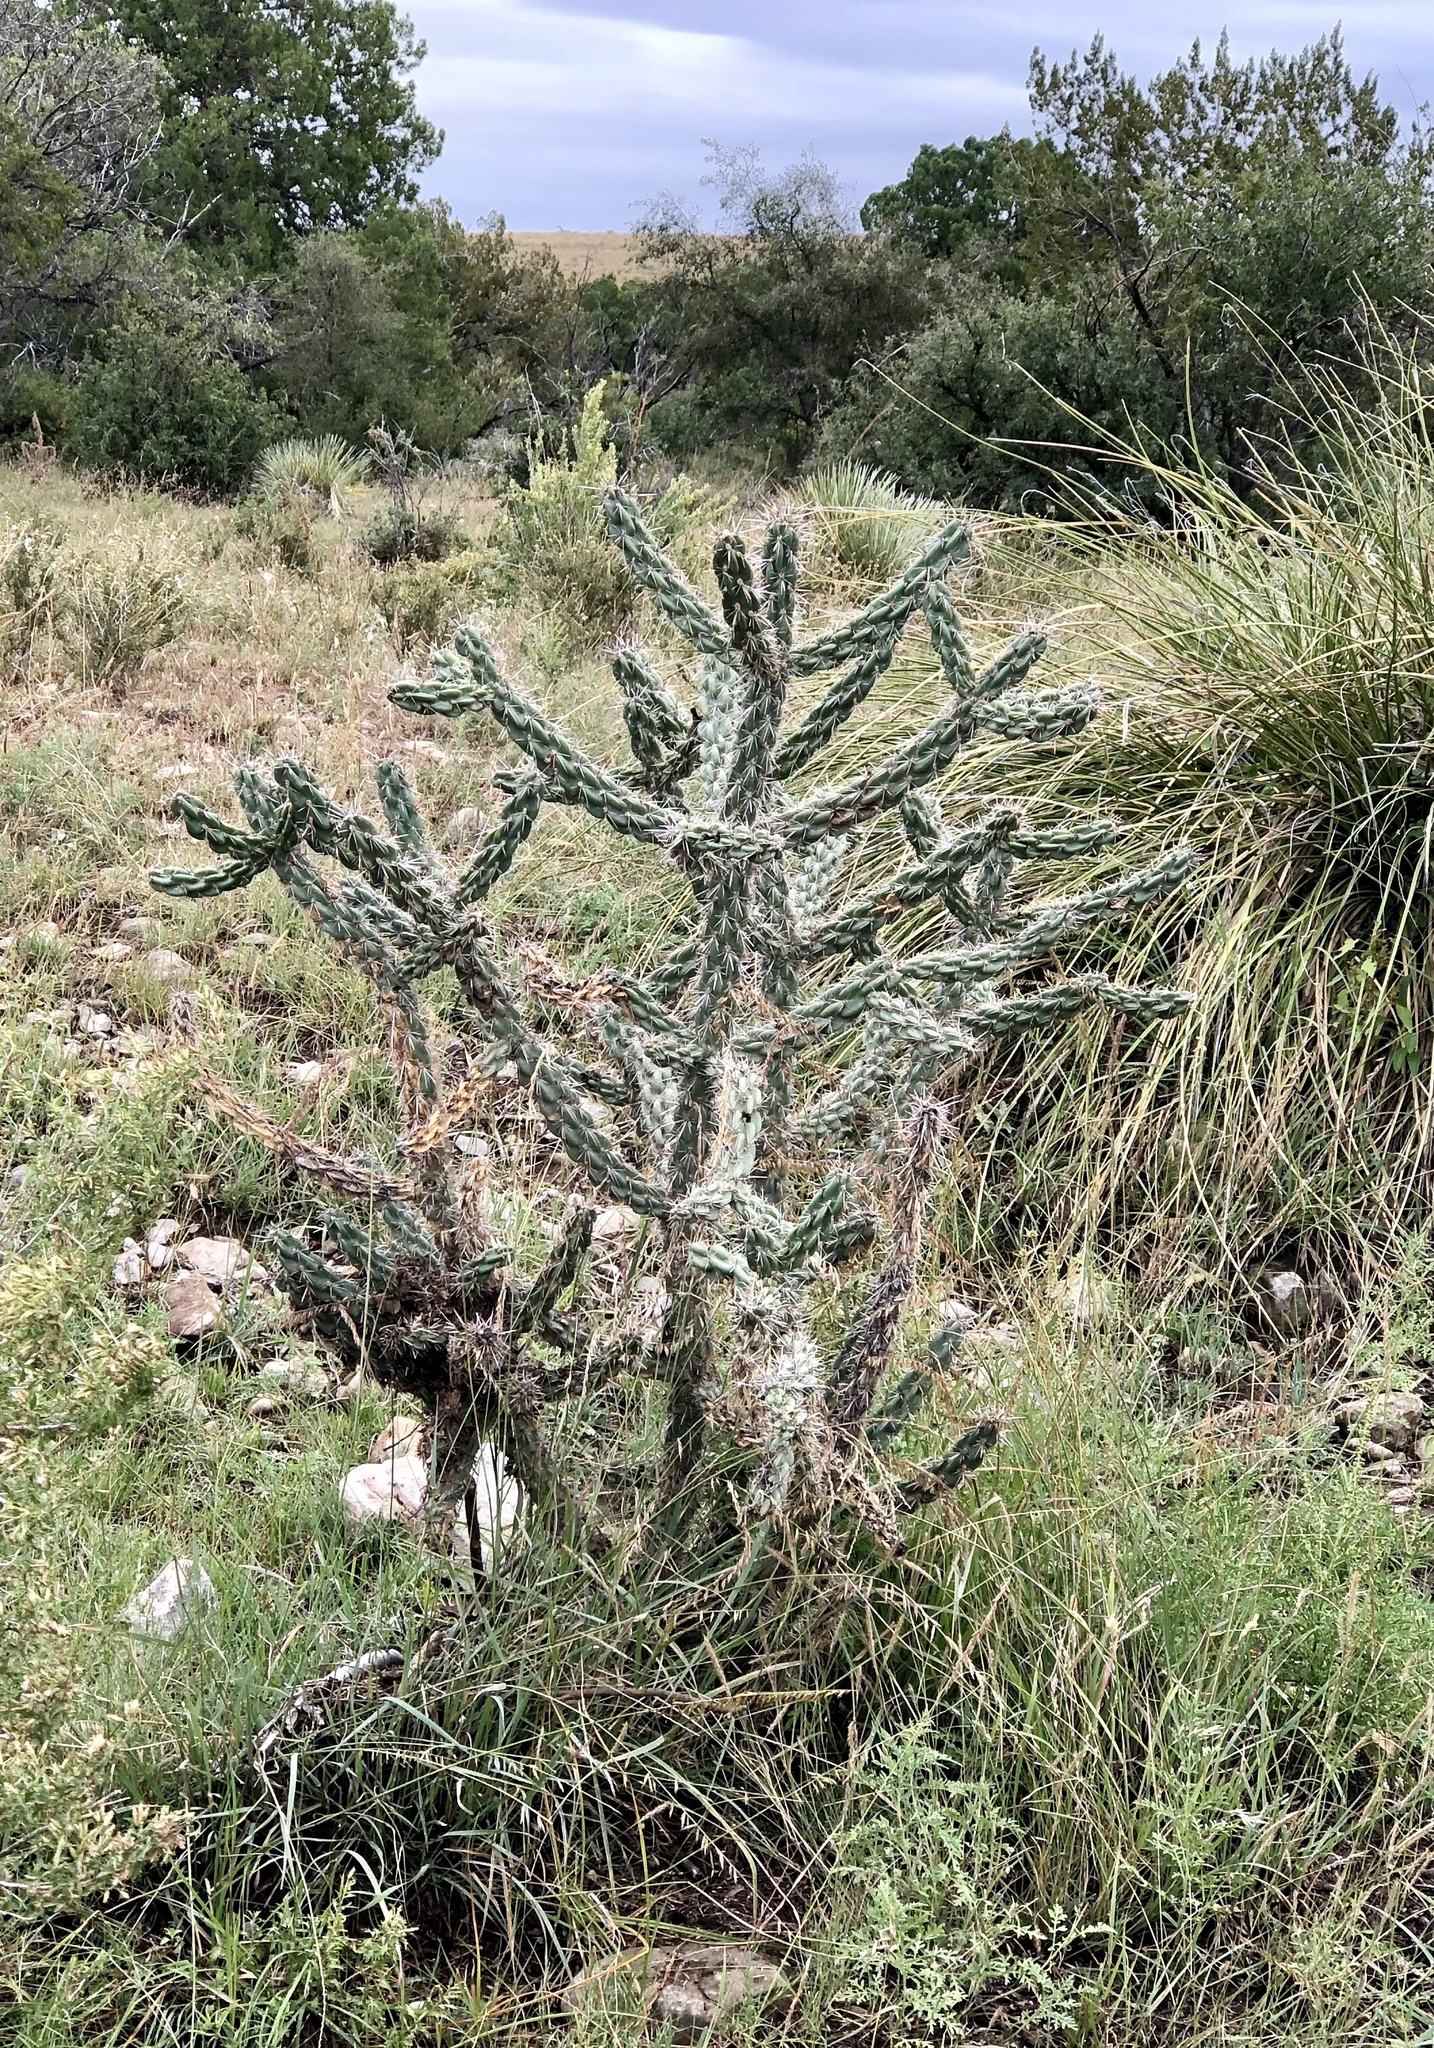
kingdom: Plantae
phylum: Tracheophyta
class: Magnoliopsida
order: Caryophyllales
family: Cactaceae
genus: Cylindropuntia
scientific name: Cylindropuntia imbricata
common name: Candelabrum cactus
